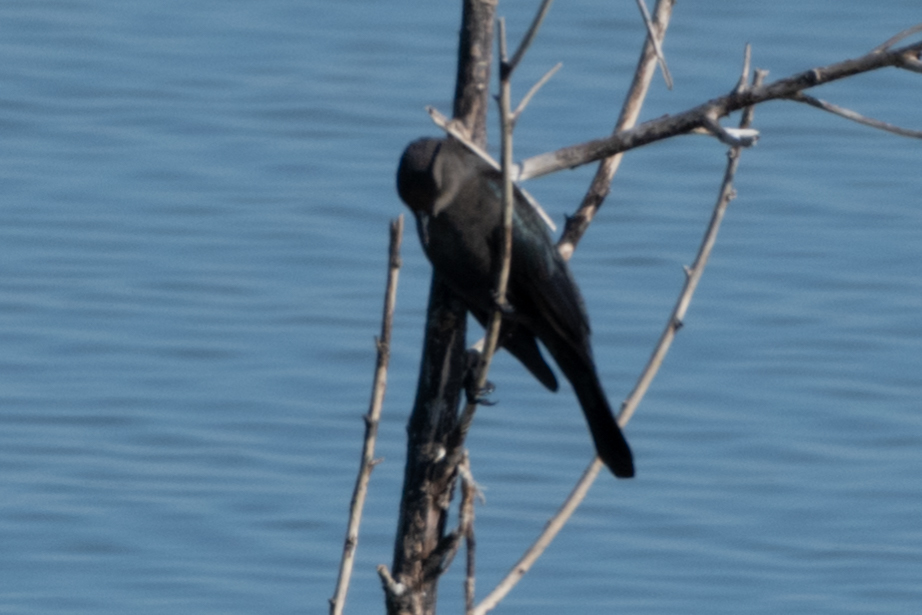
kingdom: Animalia
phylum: Chordata
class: Aves
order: Passeriformes
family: Icteridae
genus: Quiscalus
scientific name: Quiscalus mexicanus
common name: Great-tailed grackle
